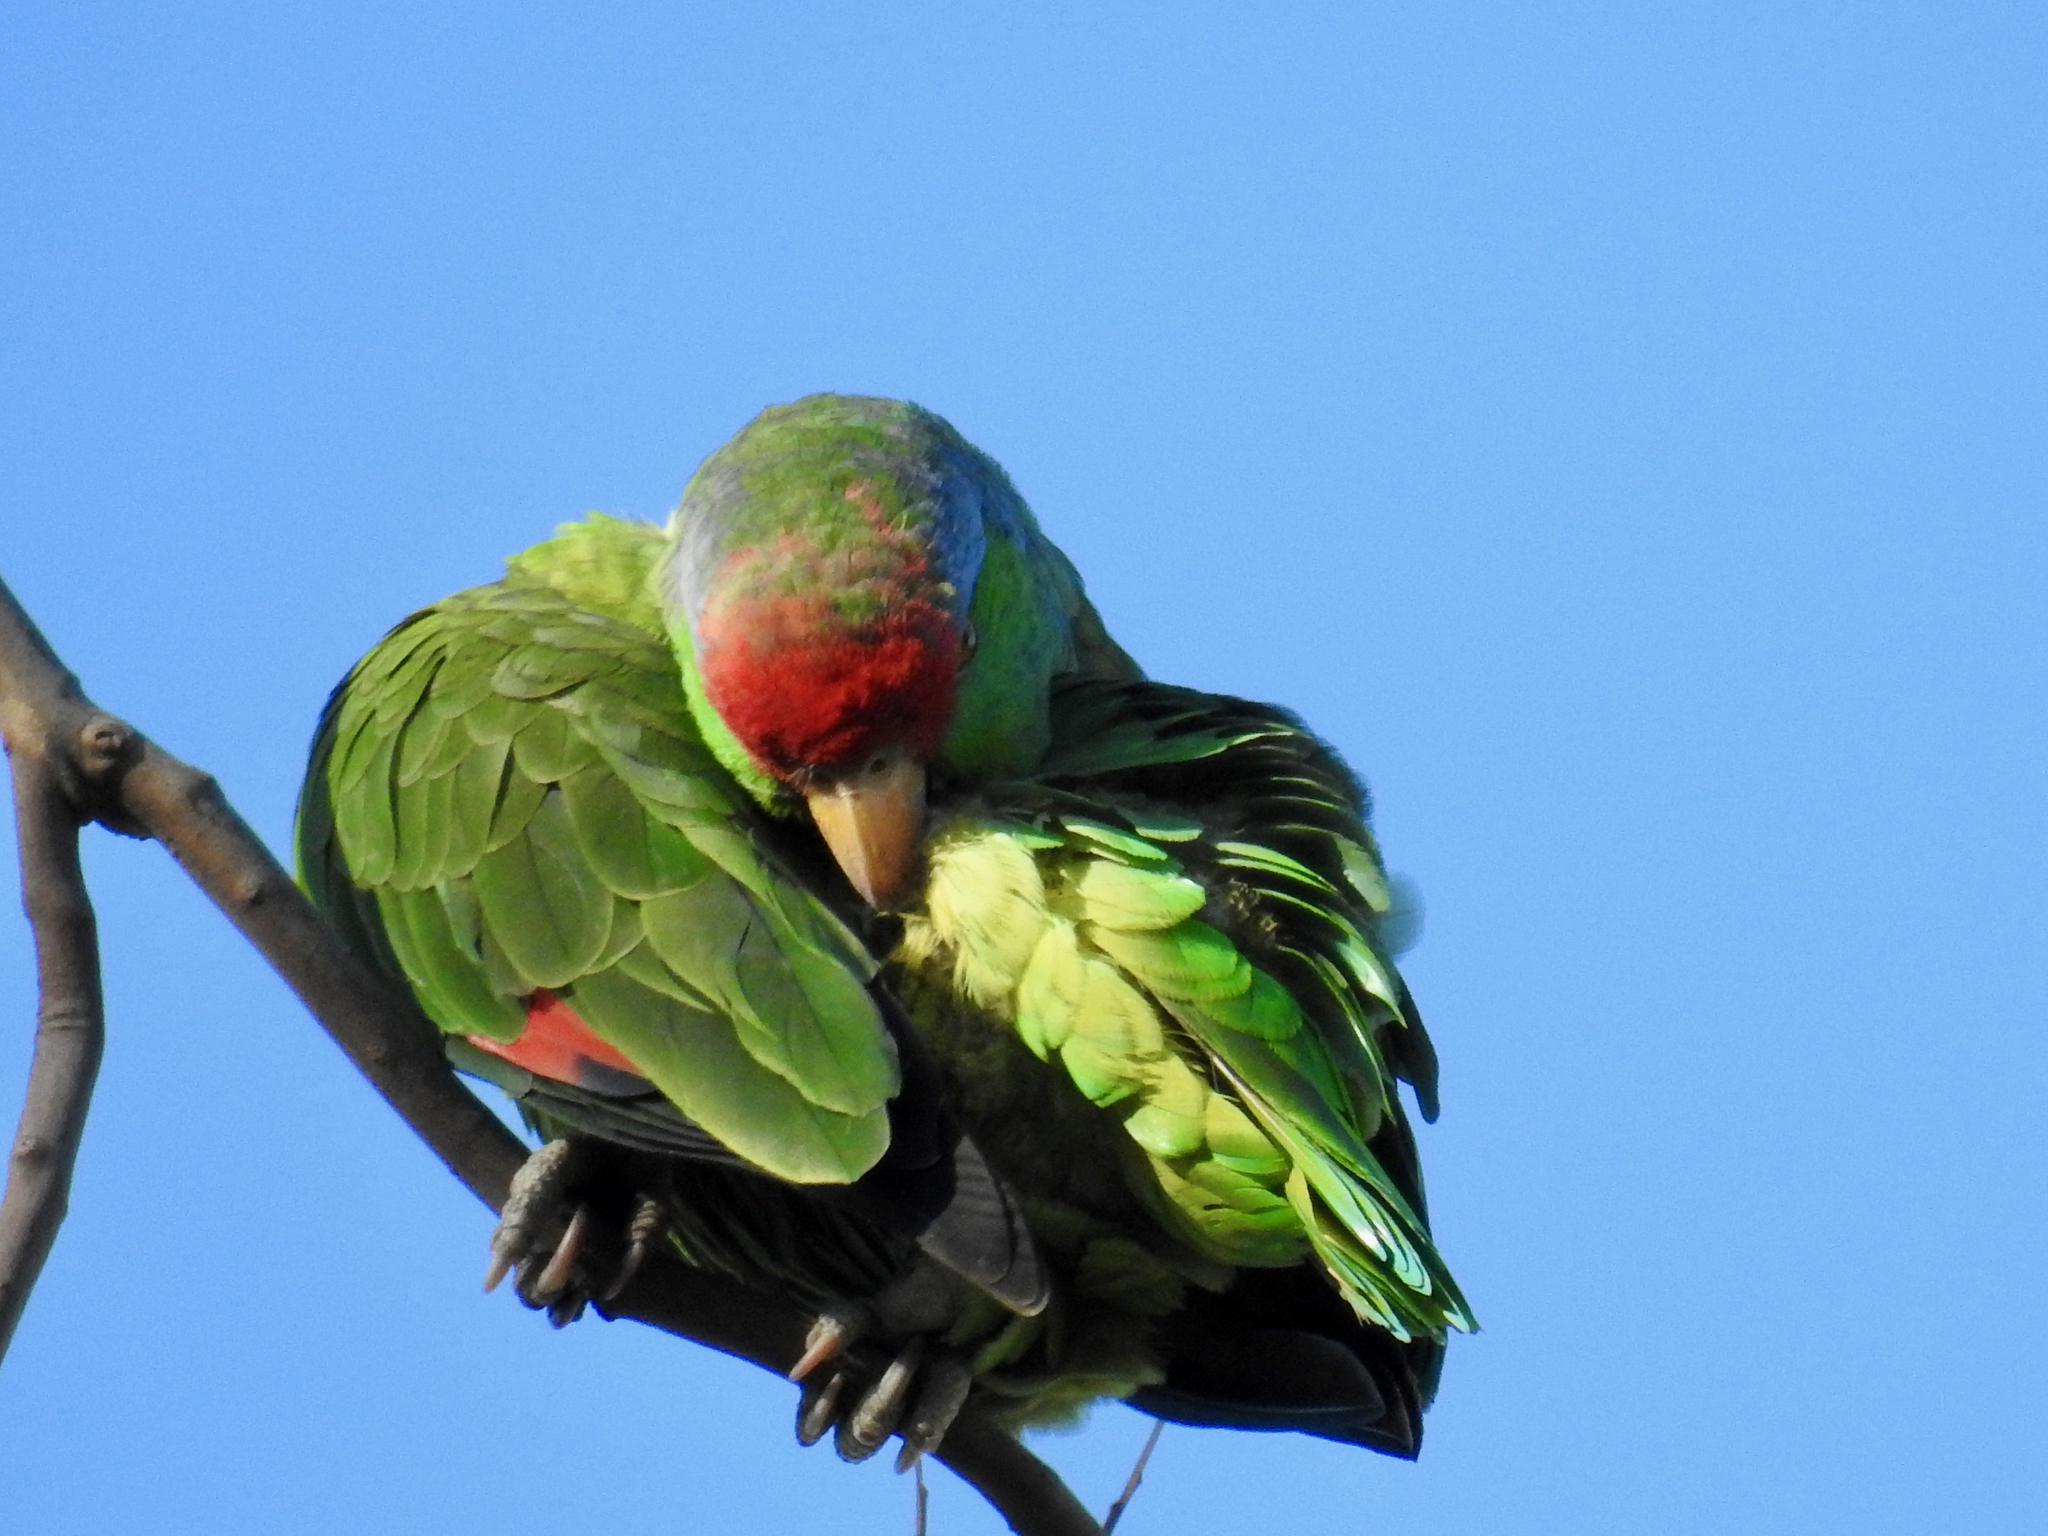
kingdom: Animalia
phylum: Chordata
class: Aves
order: Psittaciformes
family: Psittacidae
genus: Amazona
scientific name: Amazona viridigenalis
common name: Red-crowned amazon
